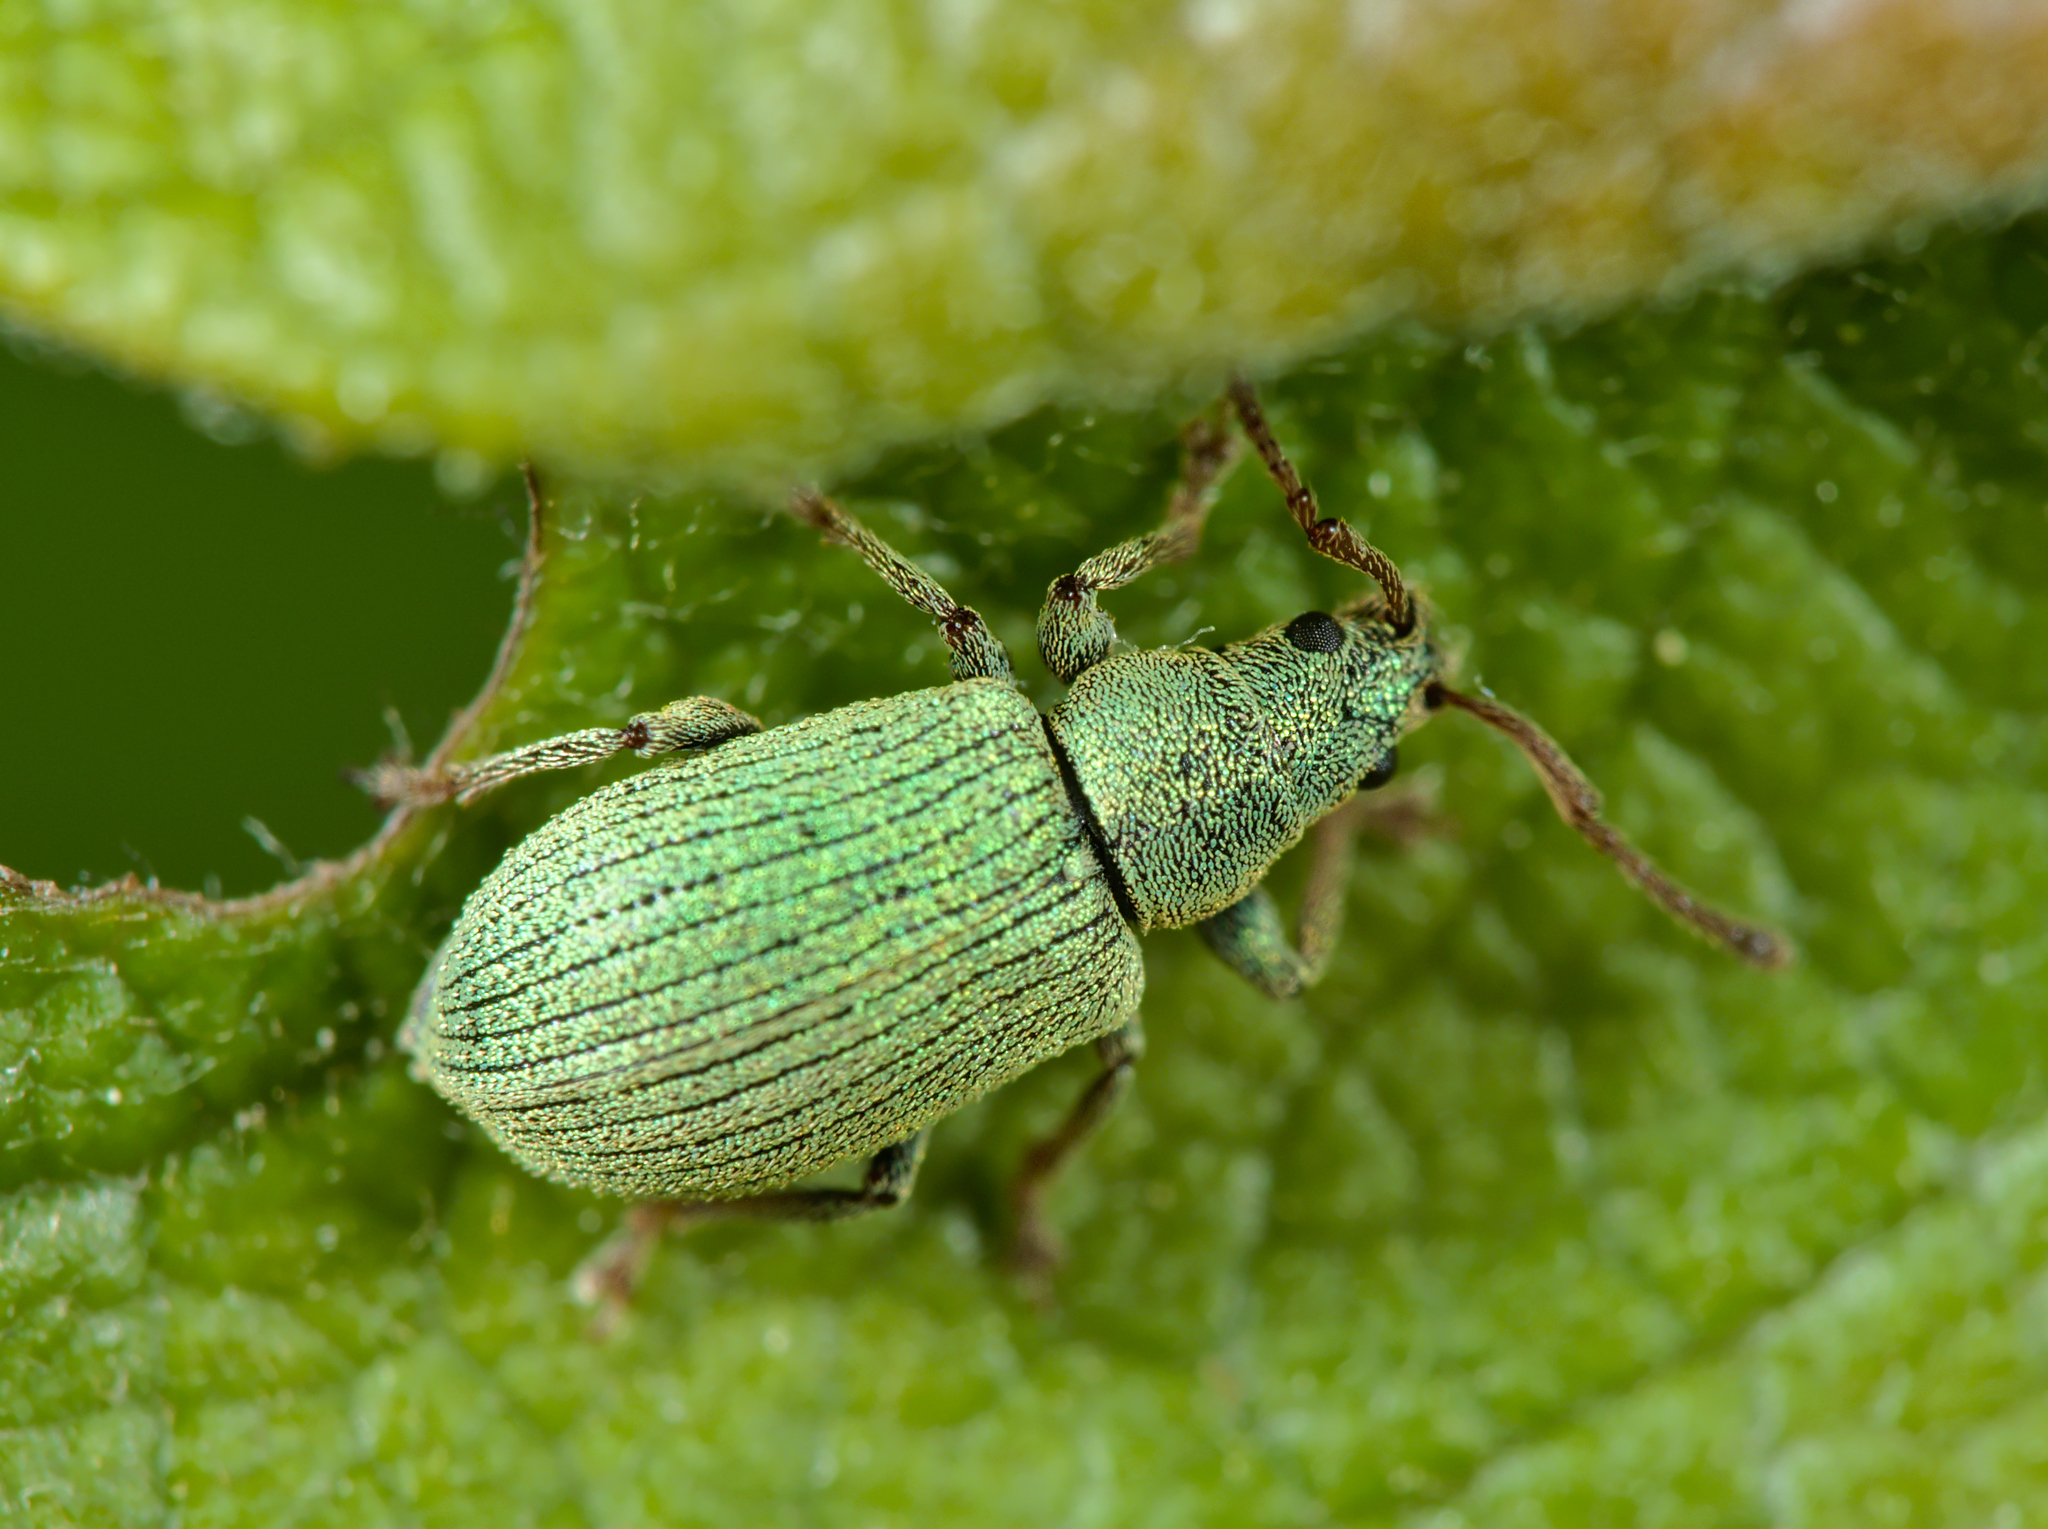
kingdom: Animalia
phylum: Arthropoda
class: Insecta
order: Coleoptera
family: Curculionidae
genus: Phyllobius
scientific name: Phyllobius roboretanus
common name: Small green nettle weevil
